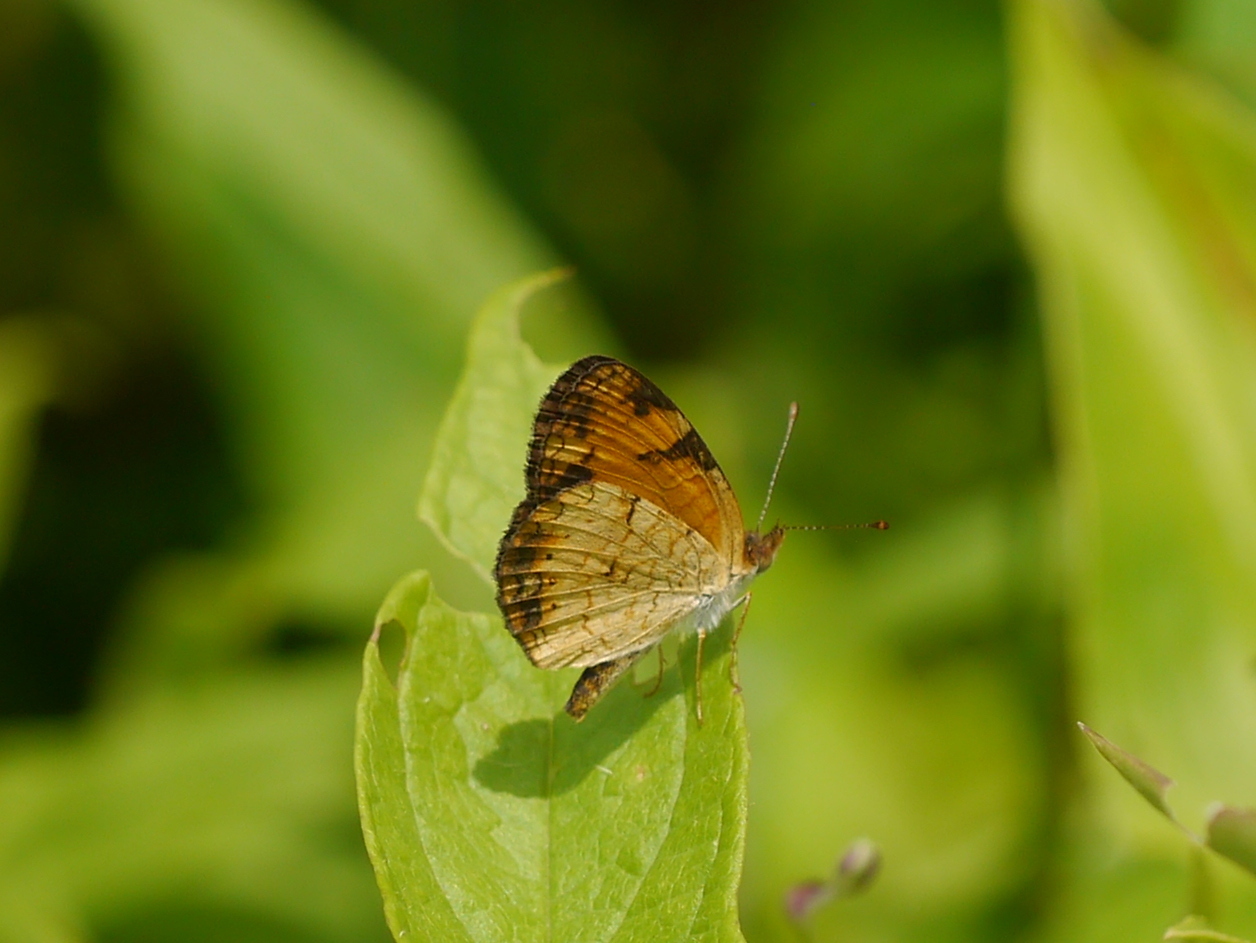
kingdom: Animalia
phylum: Arthropoda
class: Insecta
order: Lepidoptera
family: Nymphalidae
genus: Phyciodes
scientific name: Phyciodes tharos
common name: Pearl crescent
